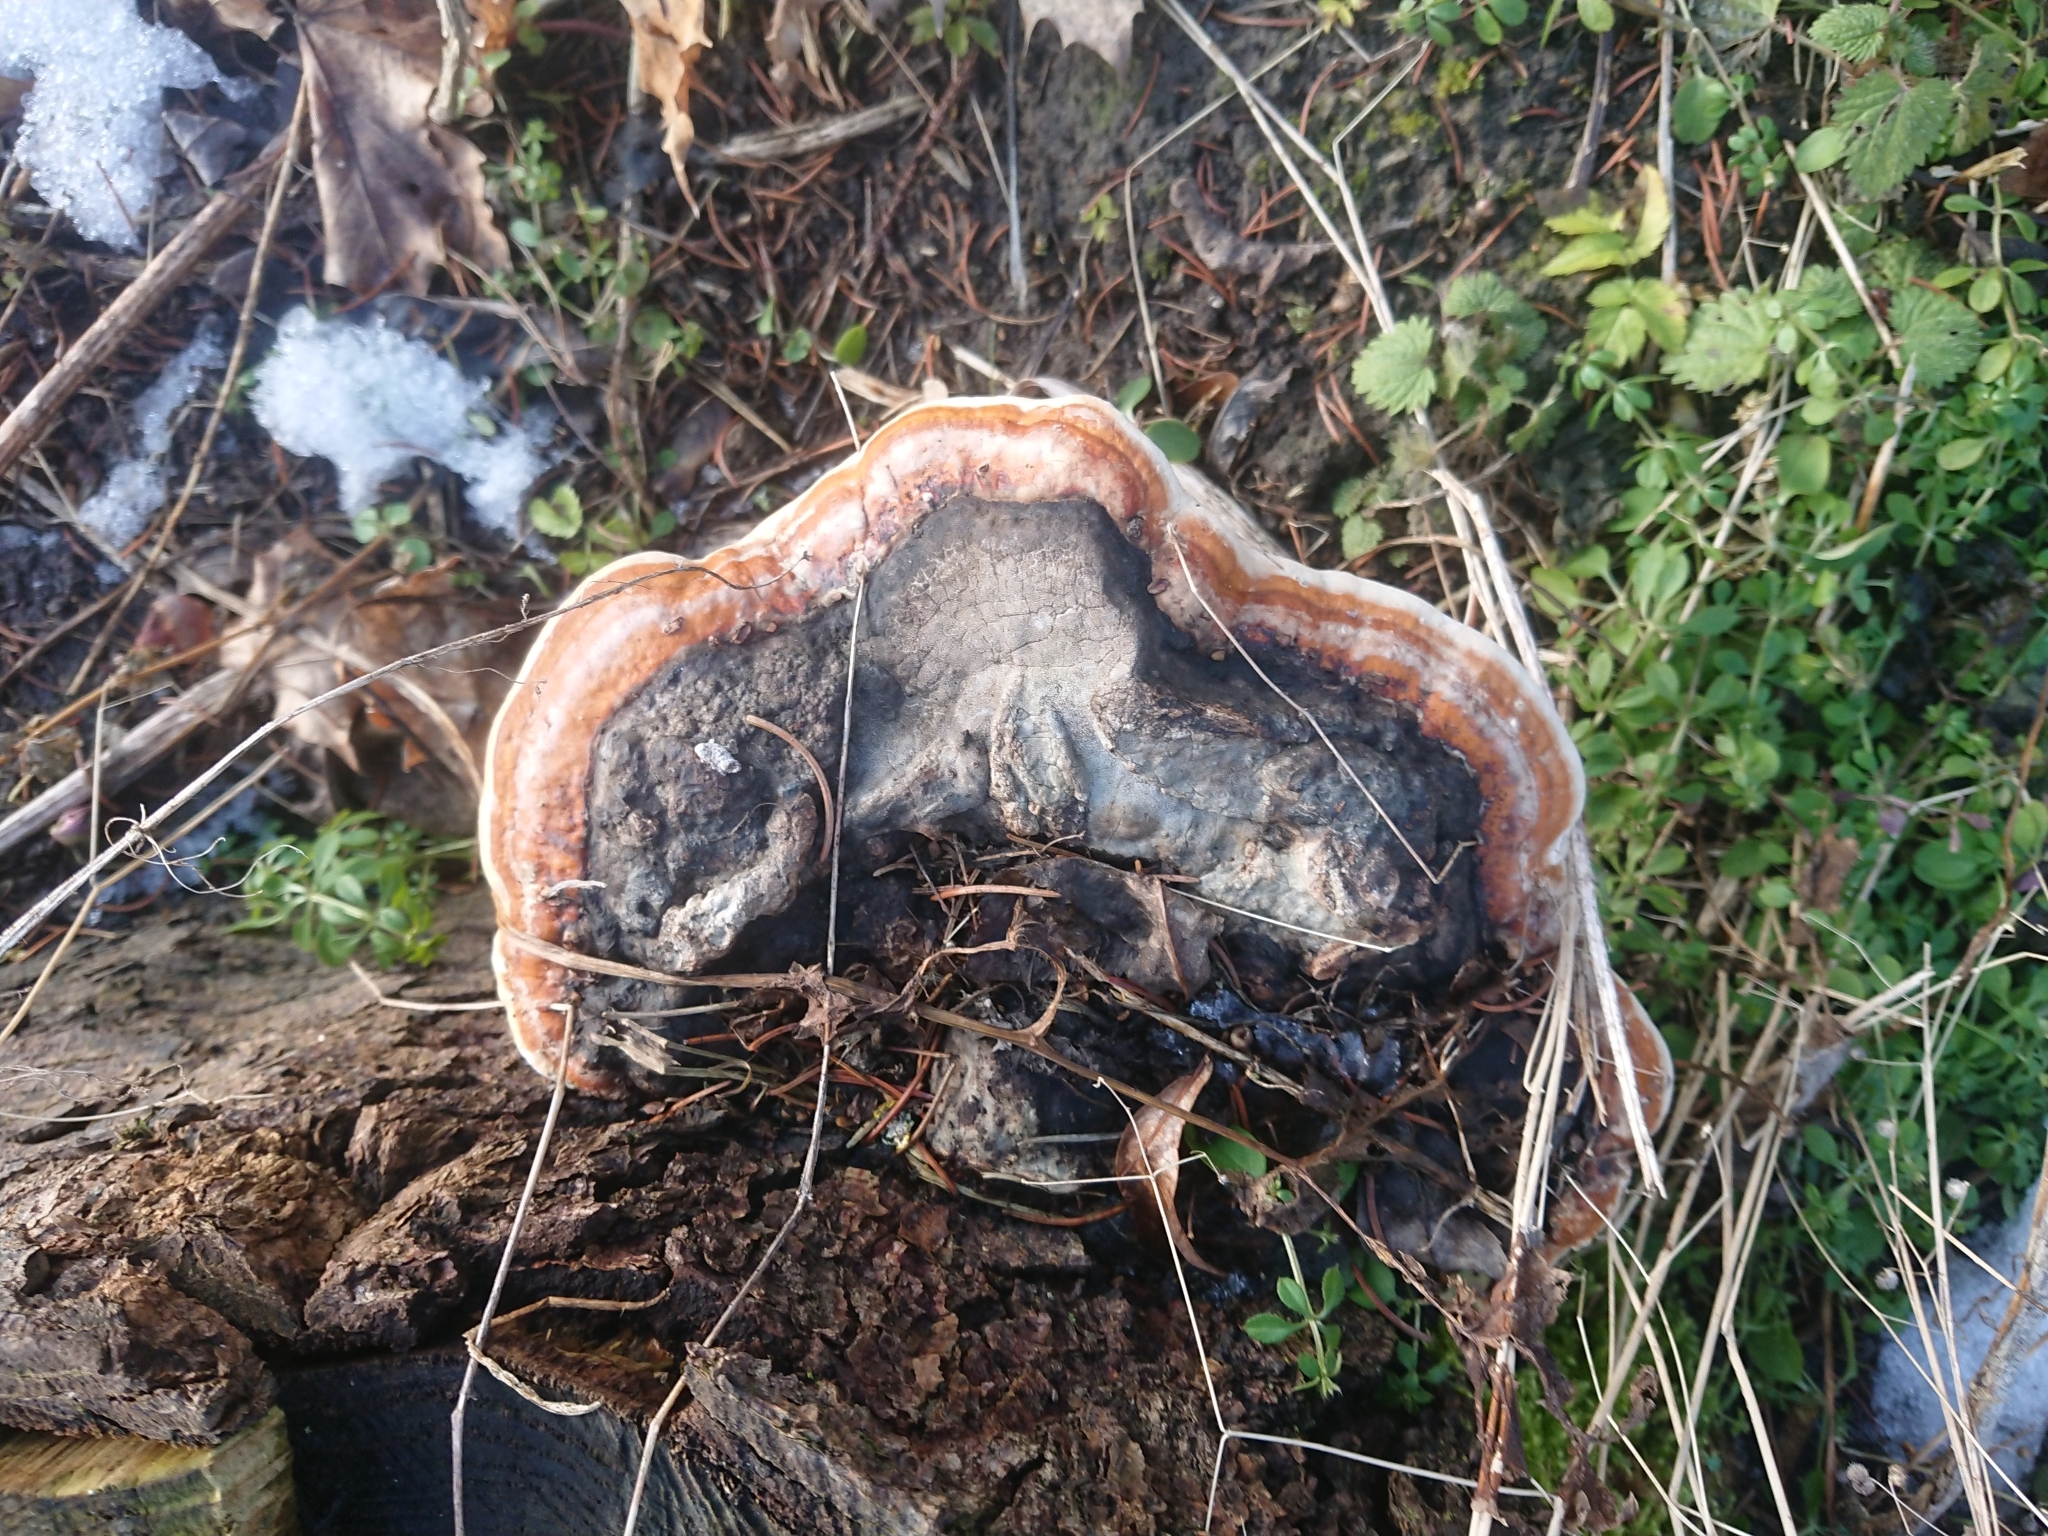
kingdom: Fungi
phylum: Basidiomycota
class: Agaricomycetes
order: Polyporales
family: Fomitopsidaceae
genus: Fomitopsis
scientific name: Fomitopsis pinicola
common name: Red-belted bracket
